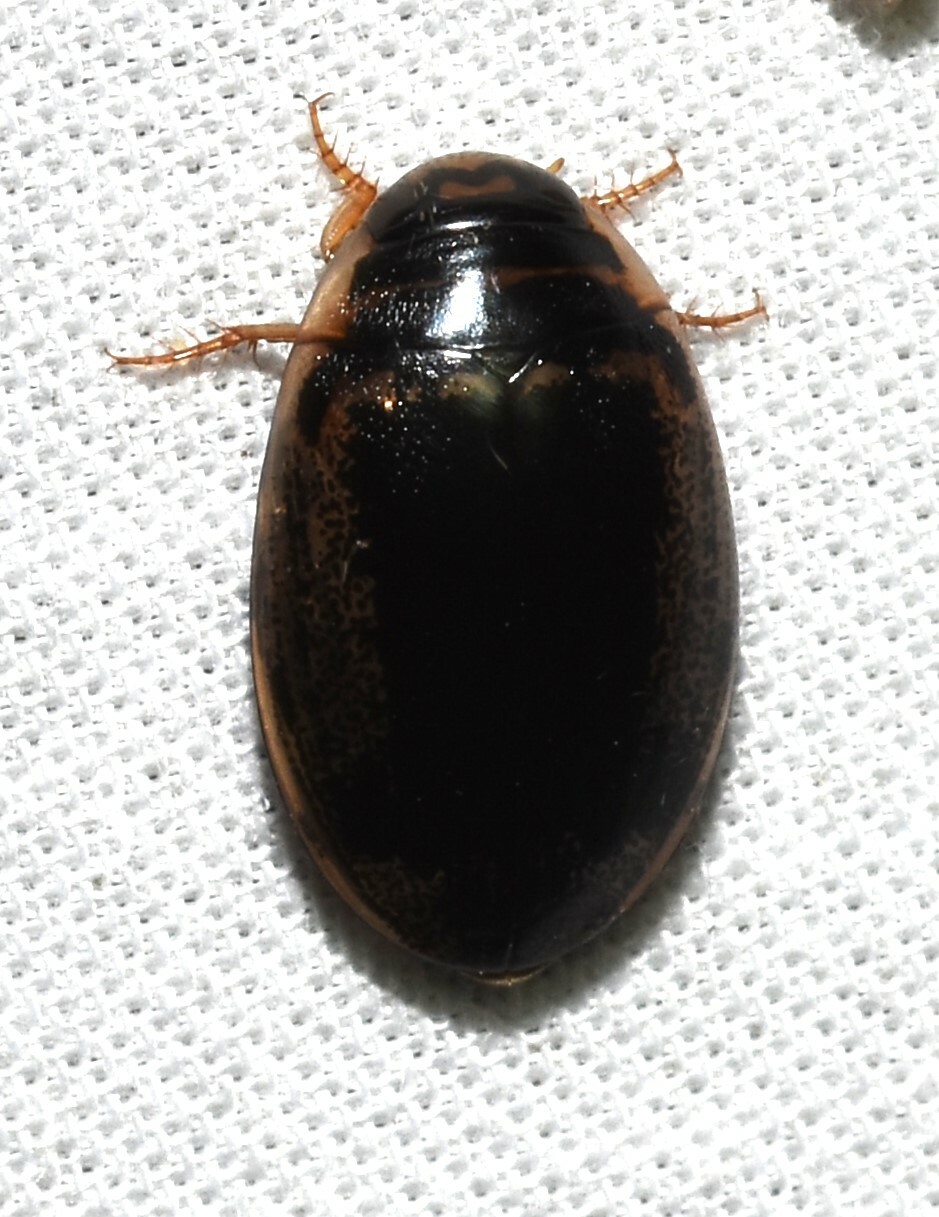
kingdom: Animalia
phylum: Arthropoda
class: Insecta
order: Coleoptera
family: Dytiscidae
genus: Thermonectus
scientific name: Thermonectus basillaris
